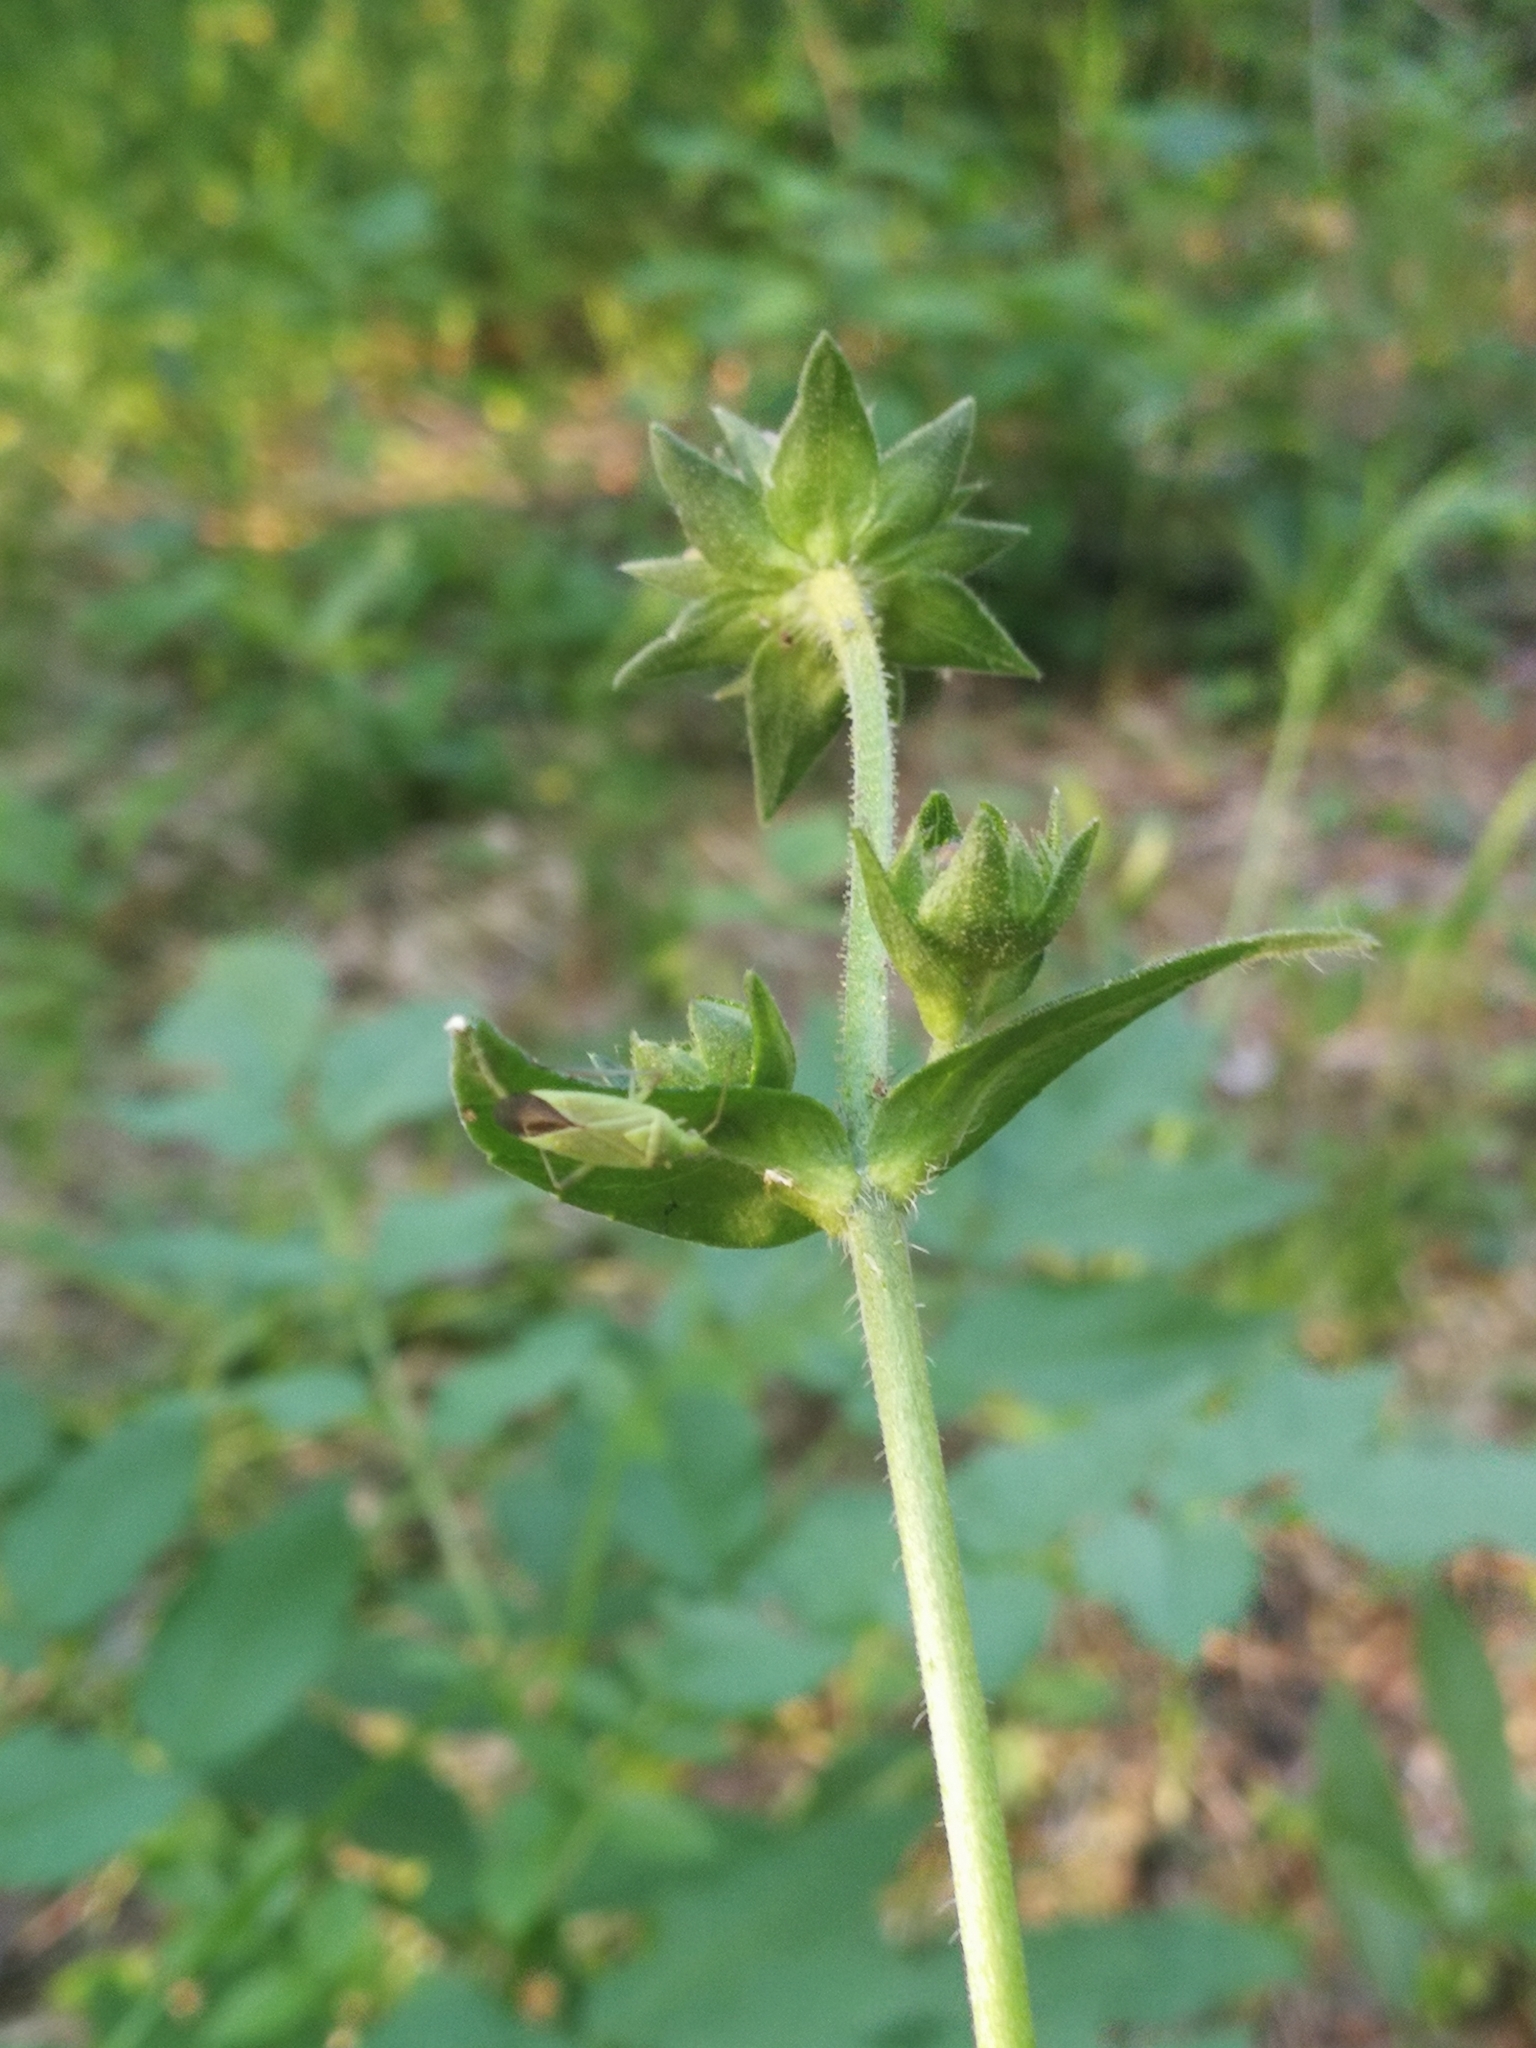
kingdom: Animalia
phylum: Arthropoda
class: Insecta
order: Hemiptera
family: Miridae
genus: Lygocoris
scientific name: Lygocoris pabulinus
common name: Common green capsid
